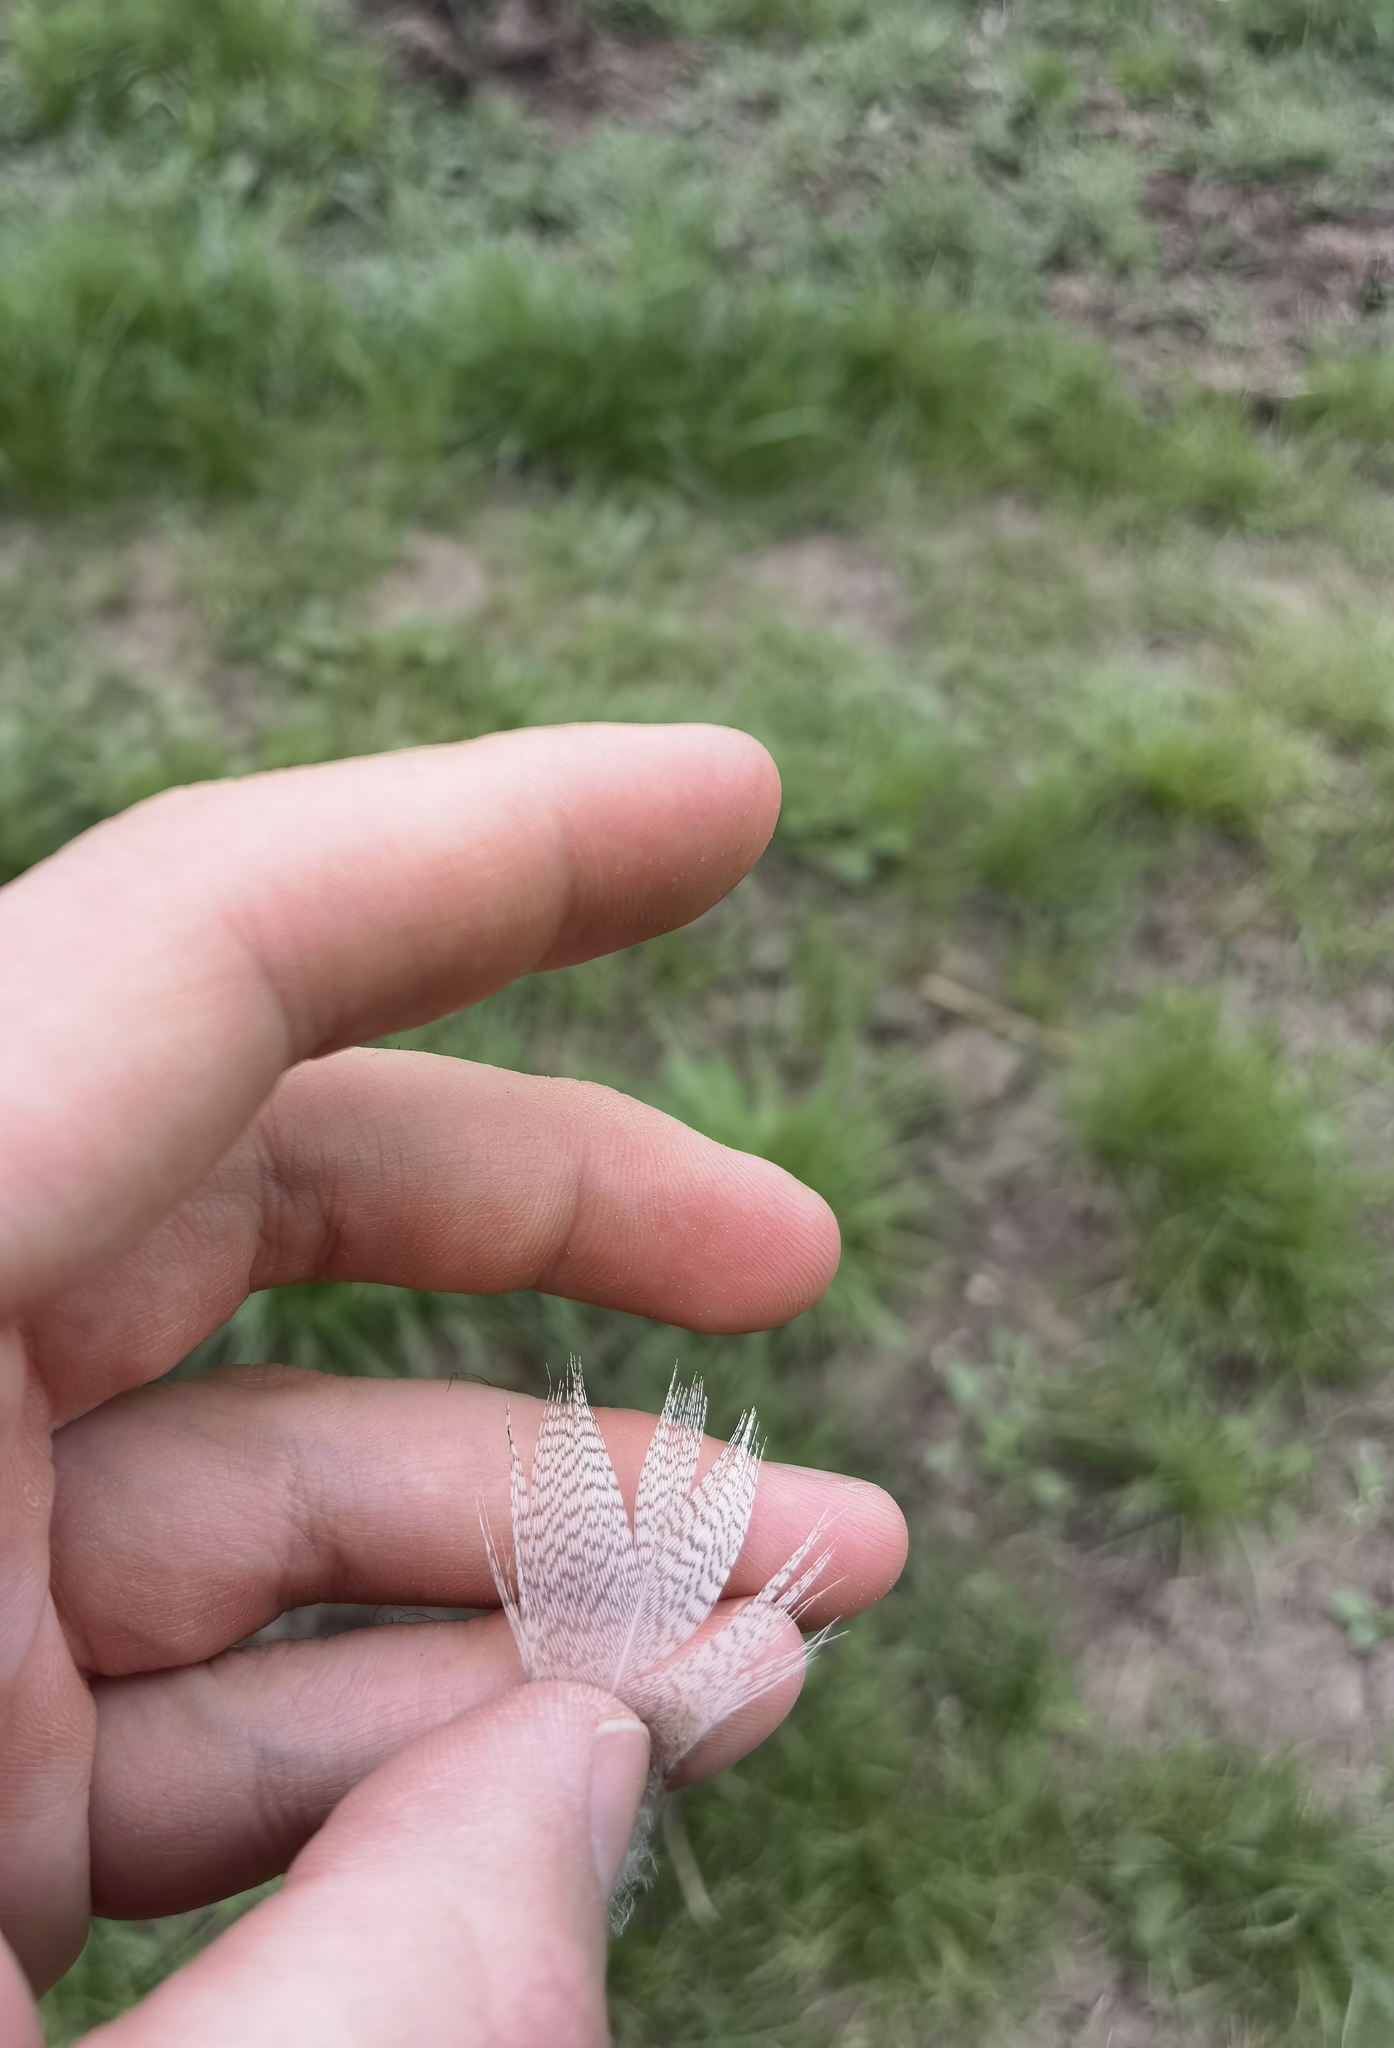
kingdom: Animalia
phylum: Chordata
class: Aves
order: Anseriformes
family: Anatidae
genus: Anas
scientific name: Anas platyrhynchos
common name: Mallard
